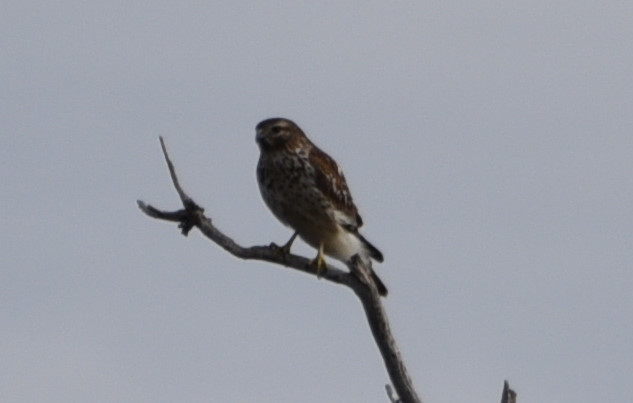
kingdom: Animalia
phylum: Chordata
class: Aves
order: Accipitriformes
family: Accipitridae
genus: Buteo
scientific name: Buteo lineatus
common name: Red-shouldered hawk
